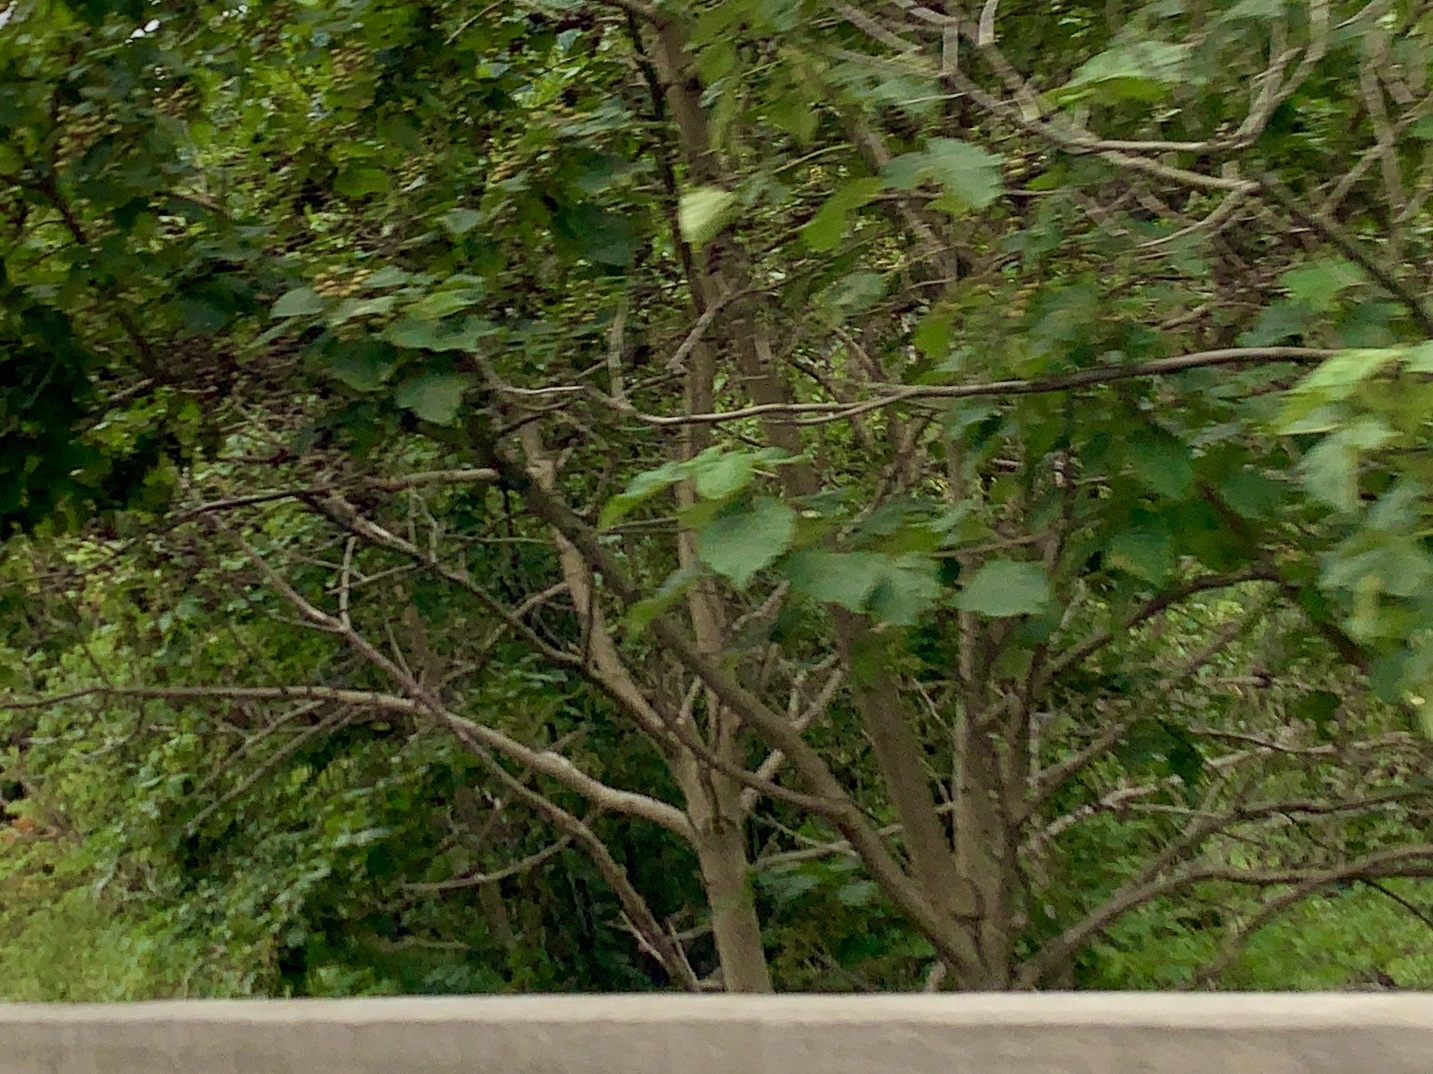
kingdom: Plantae
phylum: Tracheophyta
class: Magnoliopsida
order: Lamiales
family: Paulowniaceae
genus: Paulownia
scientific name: Paulownia tomentosa
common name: Foxglove-tree
